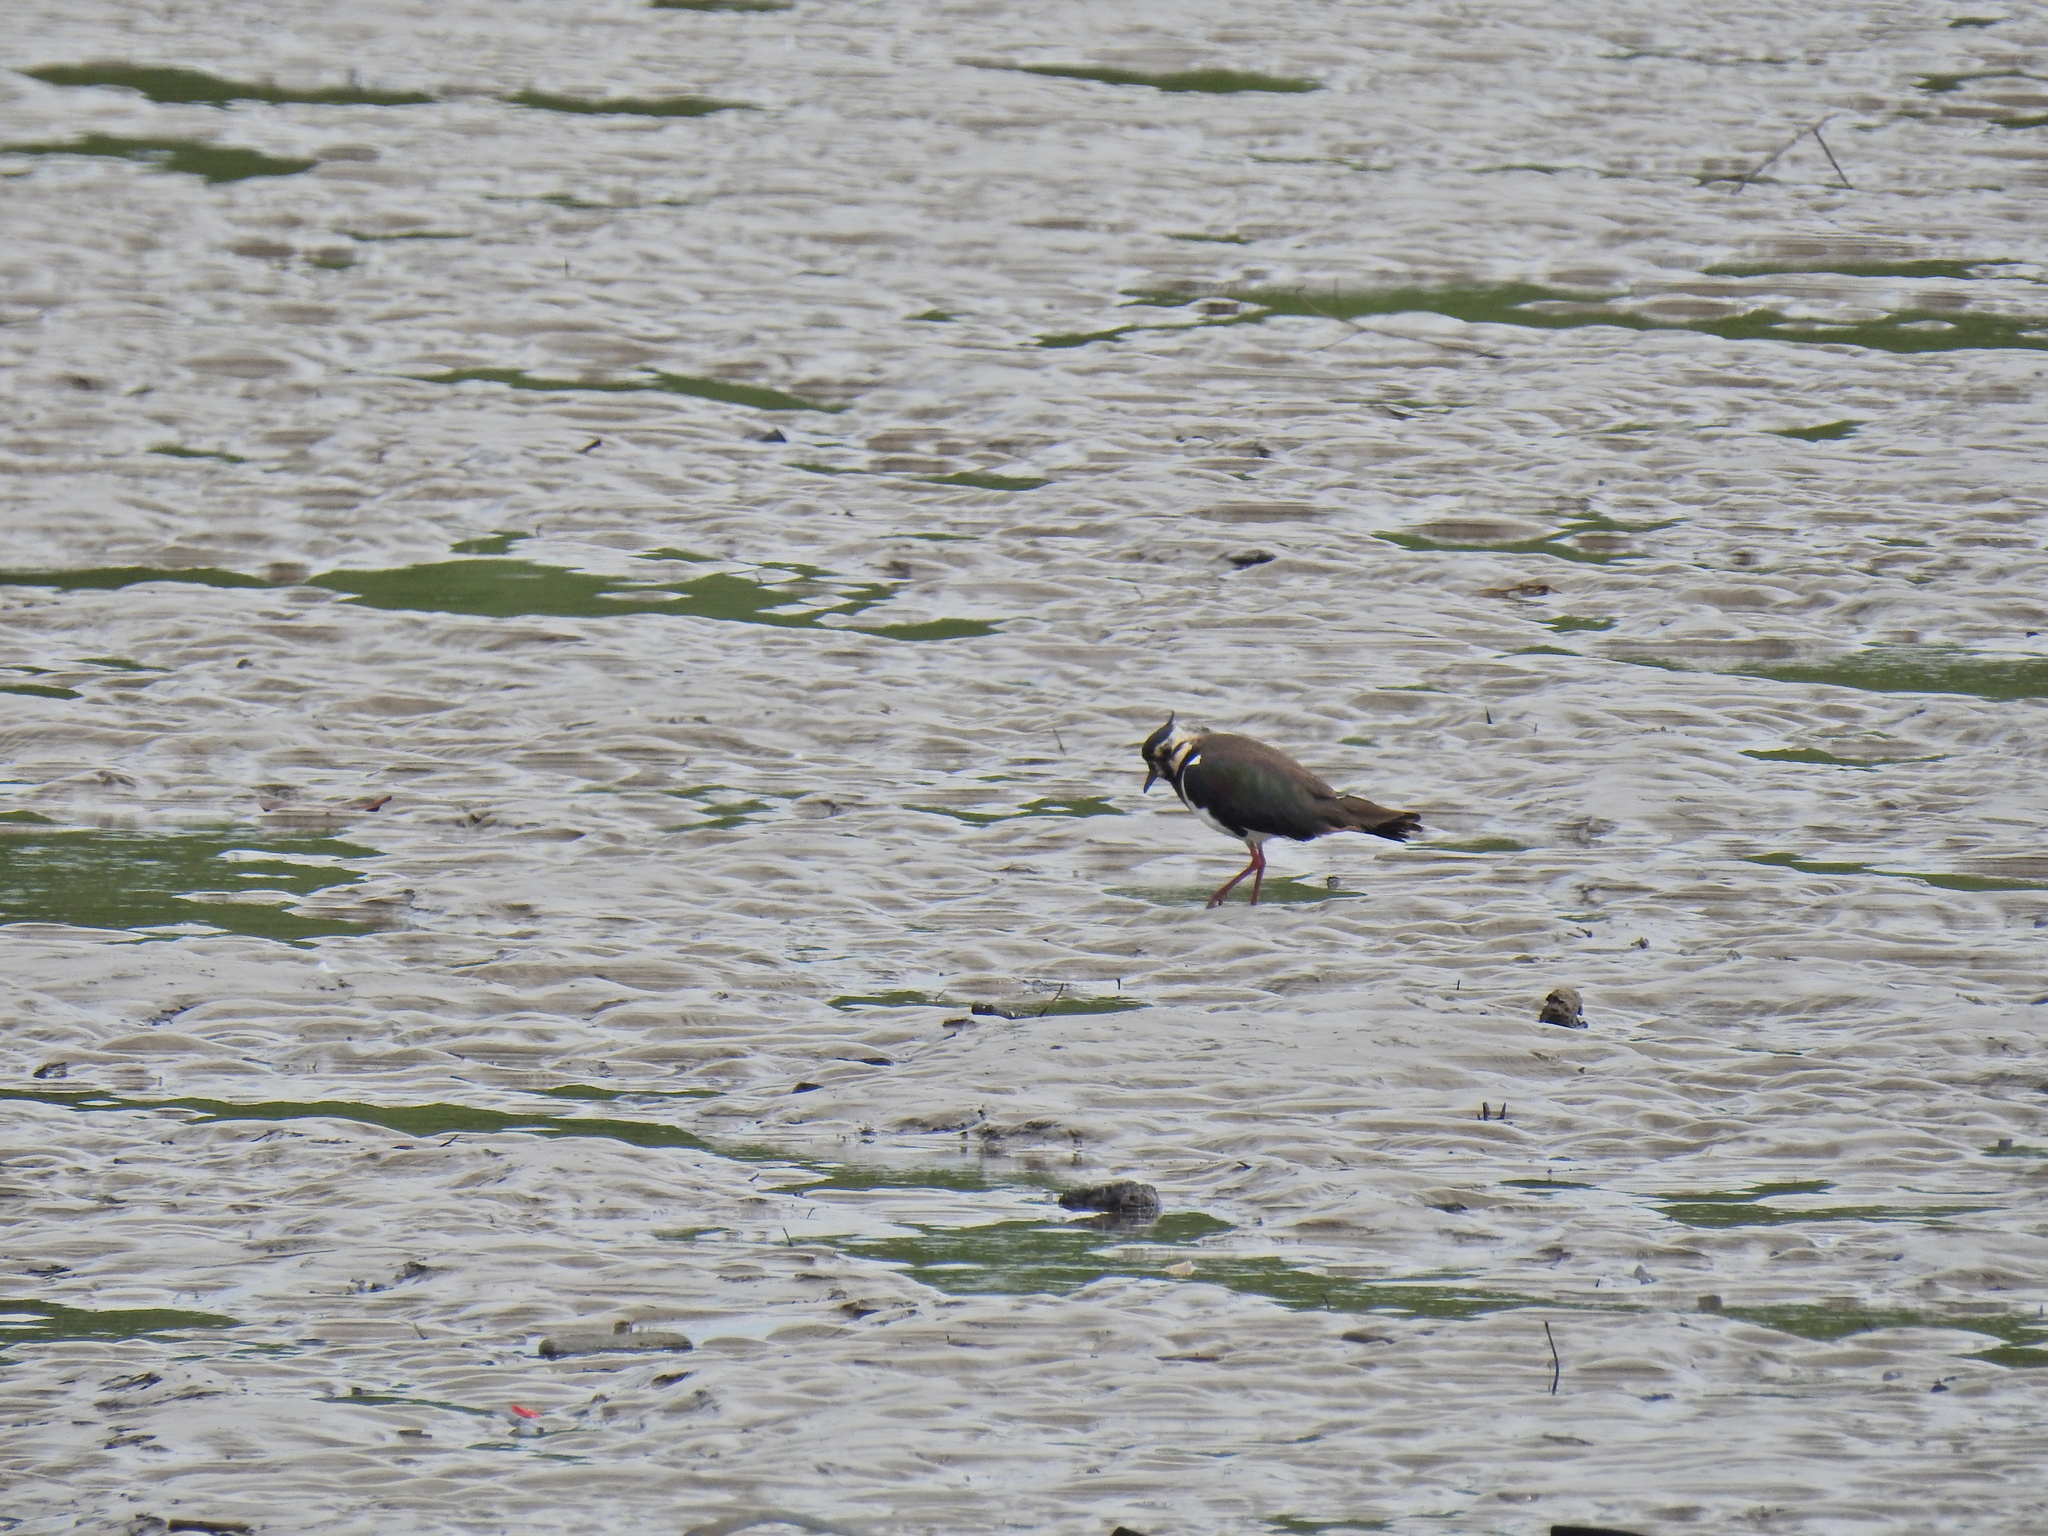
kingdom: Animalia
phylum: Chordata
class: Aves
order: Charadriiformes
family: Charadriidae
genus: Vanellus
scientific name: Vanellus vanellus
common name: Northern lapwing
